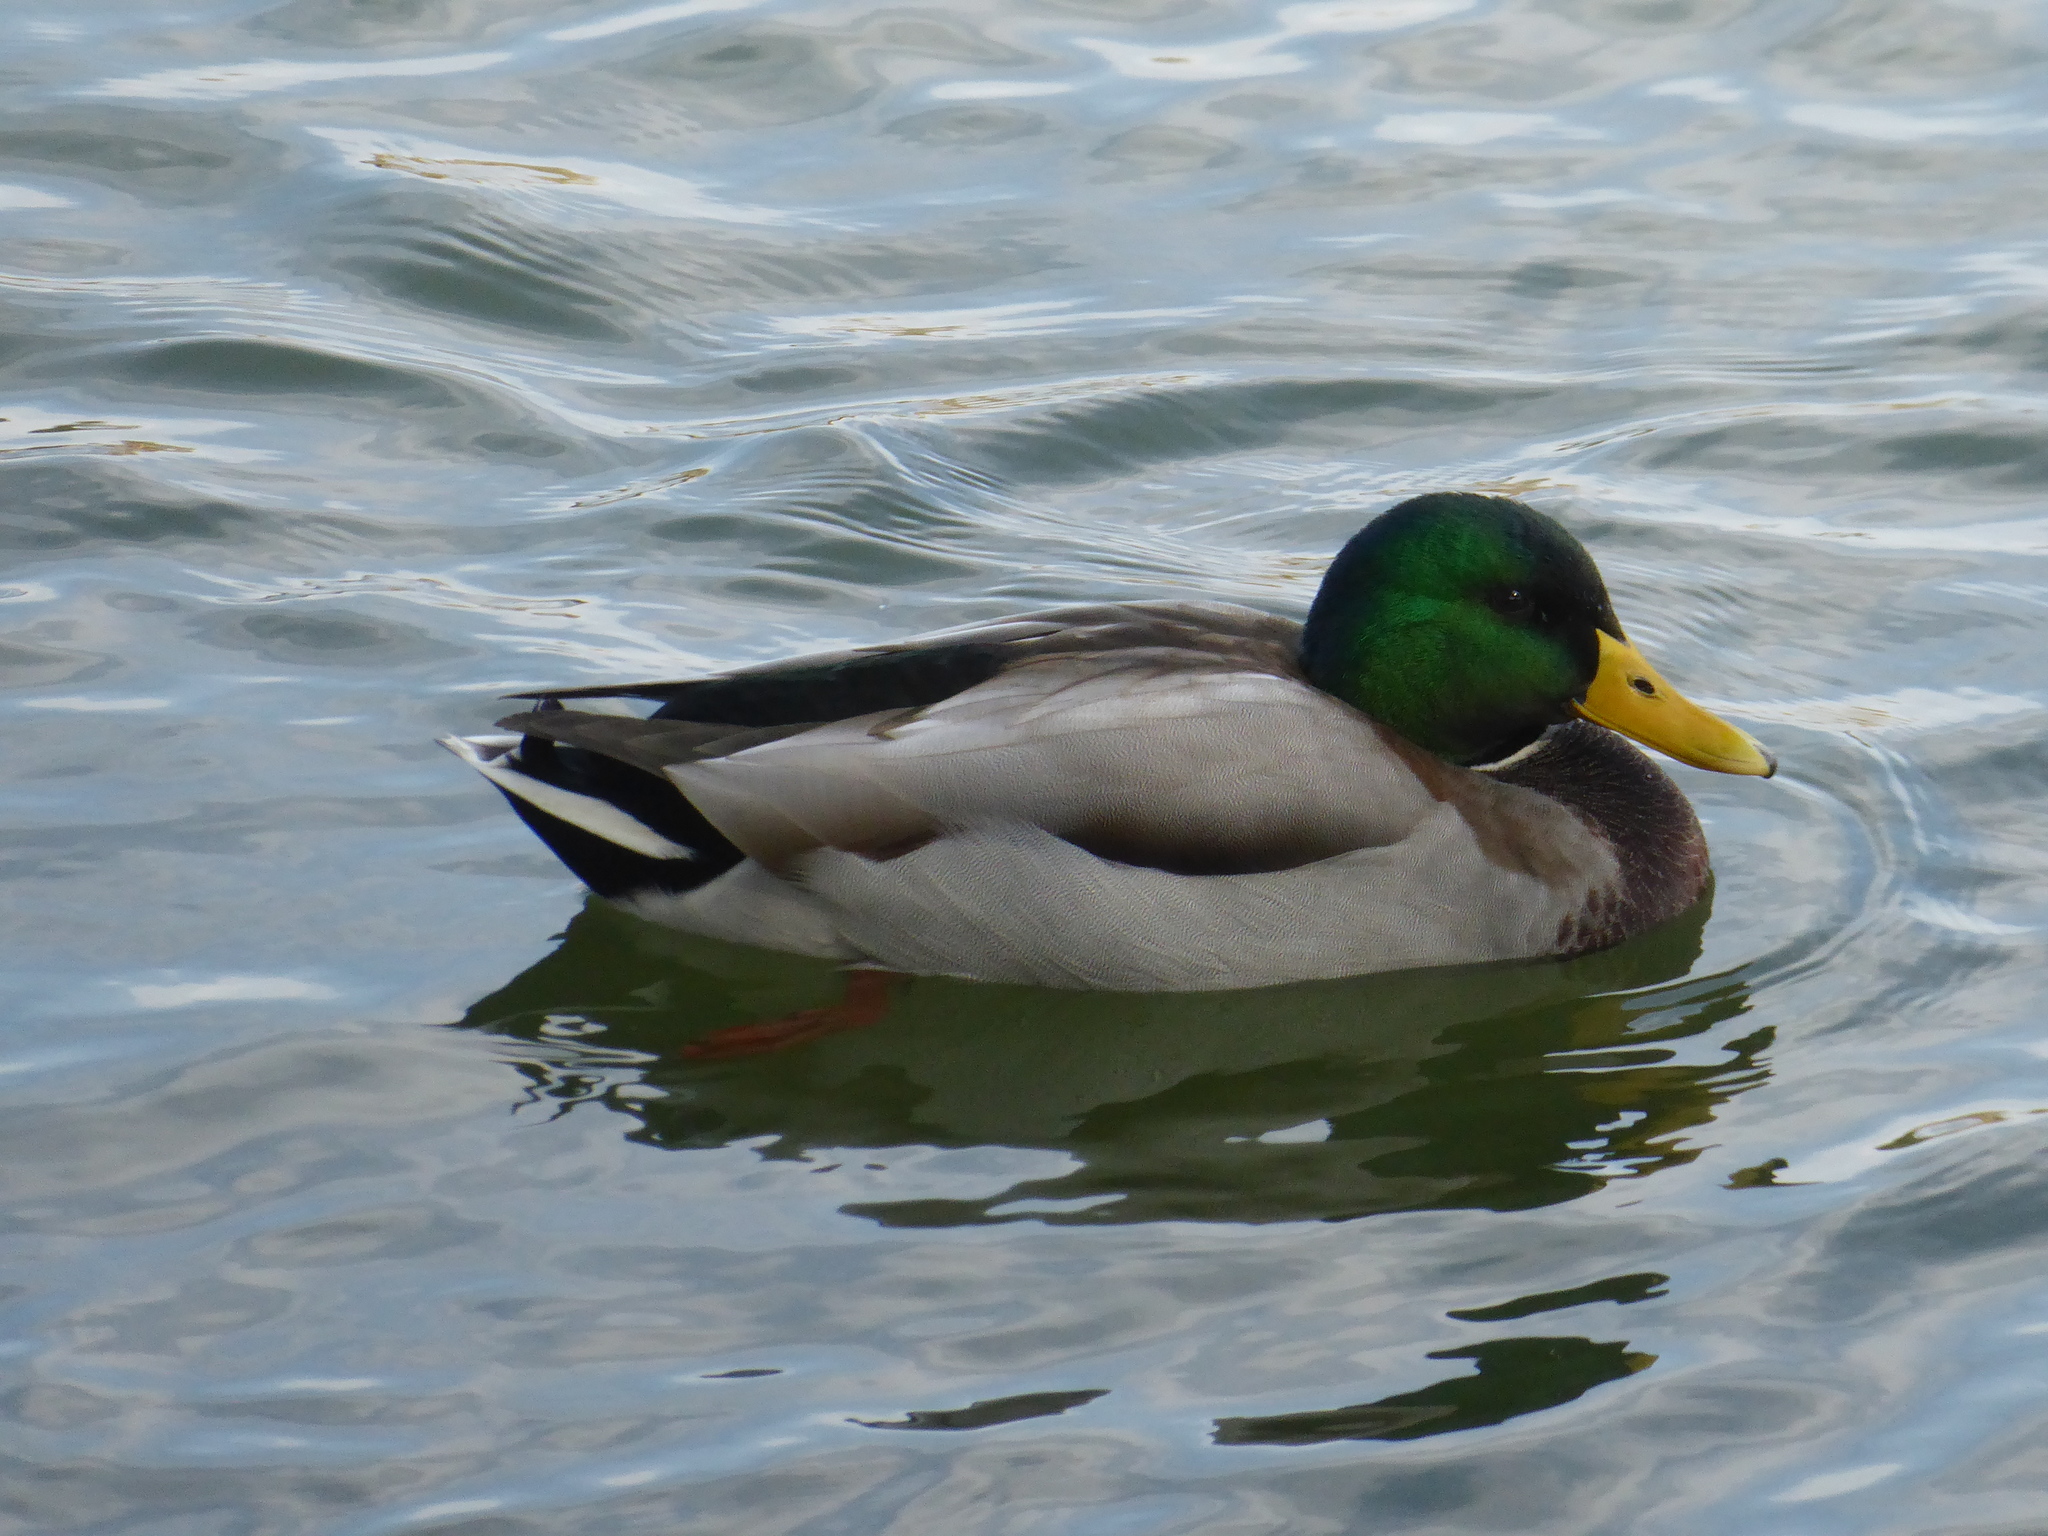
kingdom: Animalia
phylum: Chordata
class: Aves
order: Anseriformes
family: Anatidae
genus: Anas
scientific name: Anas platyrhynchos
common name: Mallard
